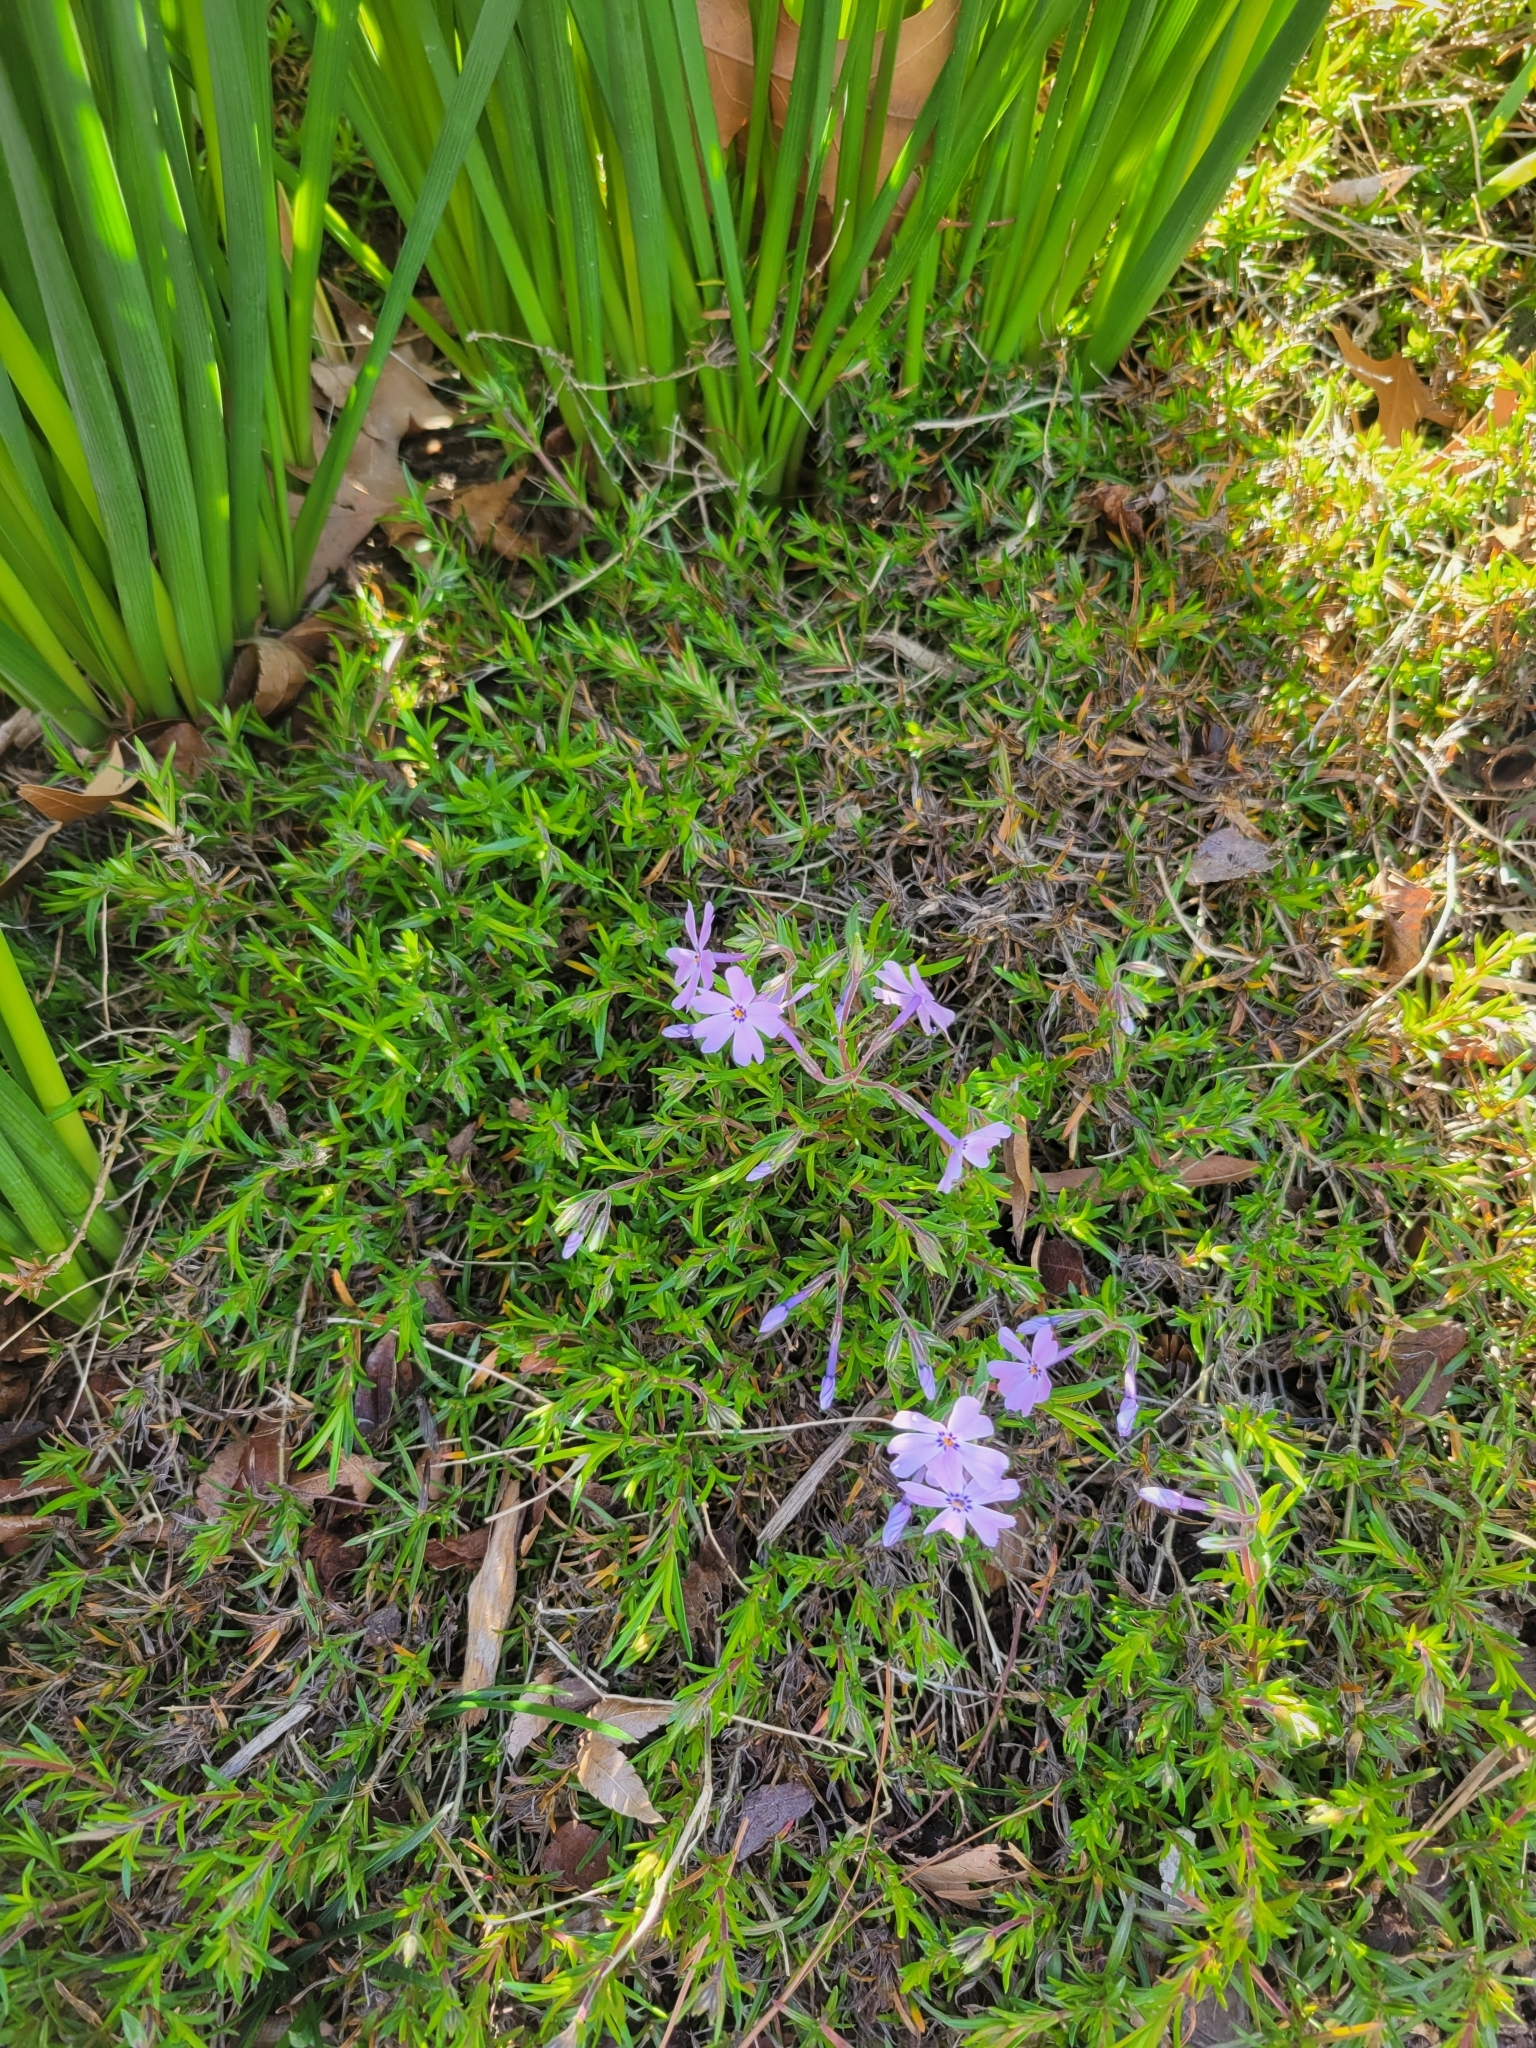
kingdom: Plantae
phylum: Tracheophyta
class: Magnoliopsida
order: Ericales
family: Polemoniaceae
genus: Phlox
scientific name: Phlox subulata
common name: Moss phlox
